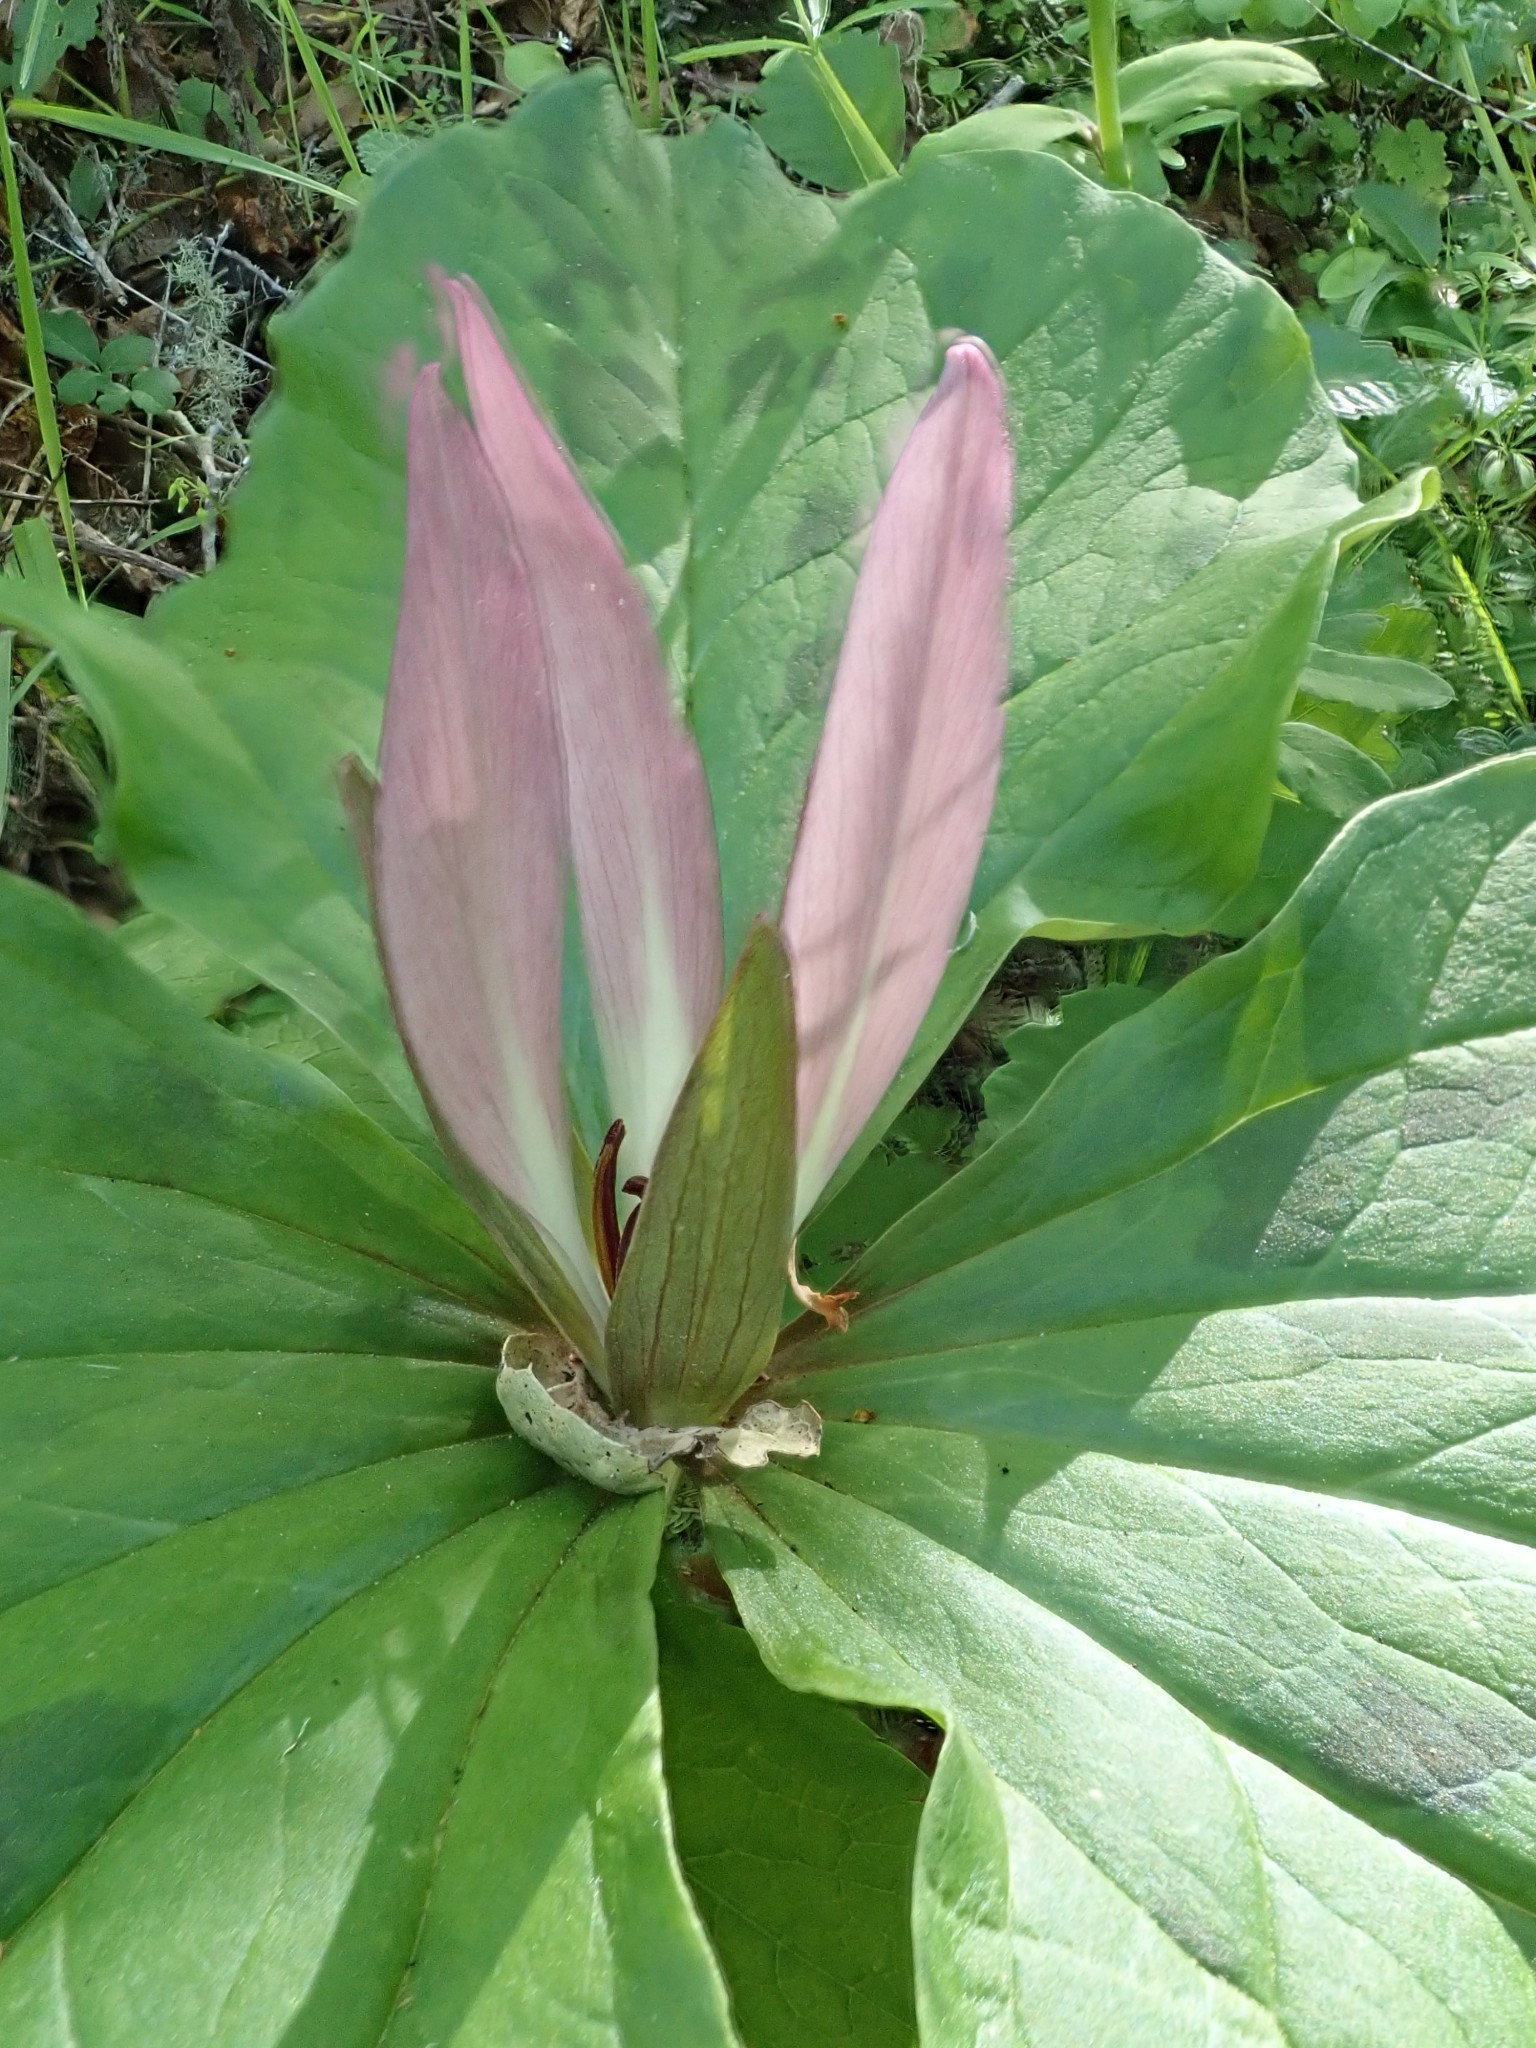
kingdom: Plantae
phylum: Tracheophyta
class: Liliopsida
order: Liliales
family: Melanthiaceae
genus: Trillium
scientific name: Trillium chloropetalum
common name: Giant trillium
